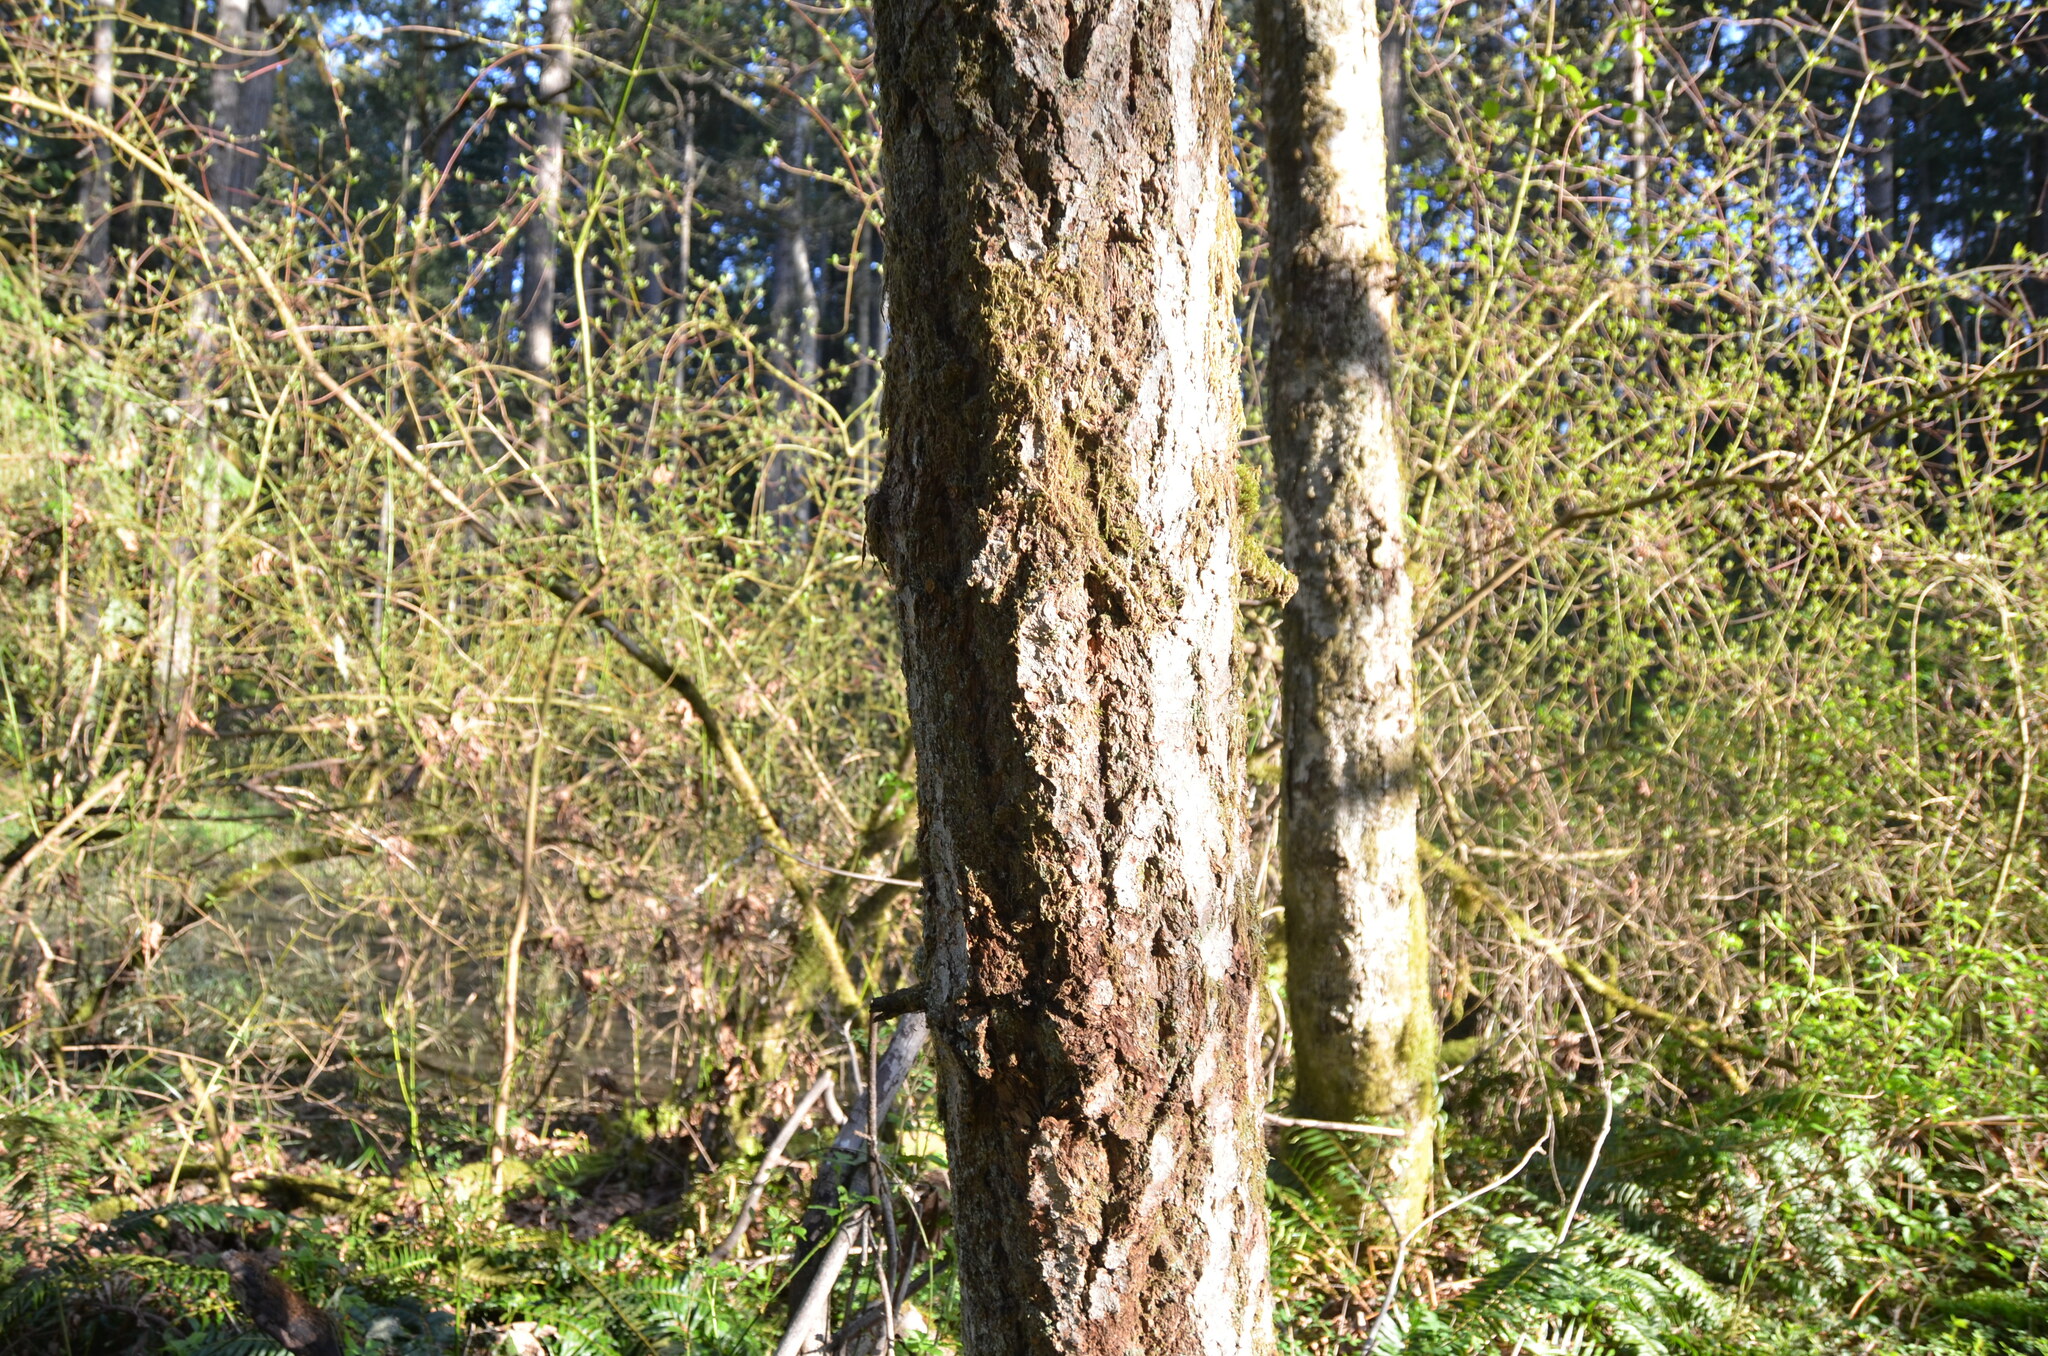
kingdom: Plantae
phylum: Tracheophyta
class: Pinopsida
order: Pinales
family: Pinaceae
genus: Pseudotsuga
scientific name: Pseudotsuga menziesii
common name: Douglas fir
